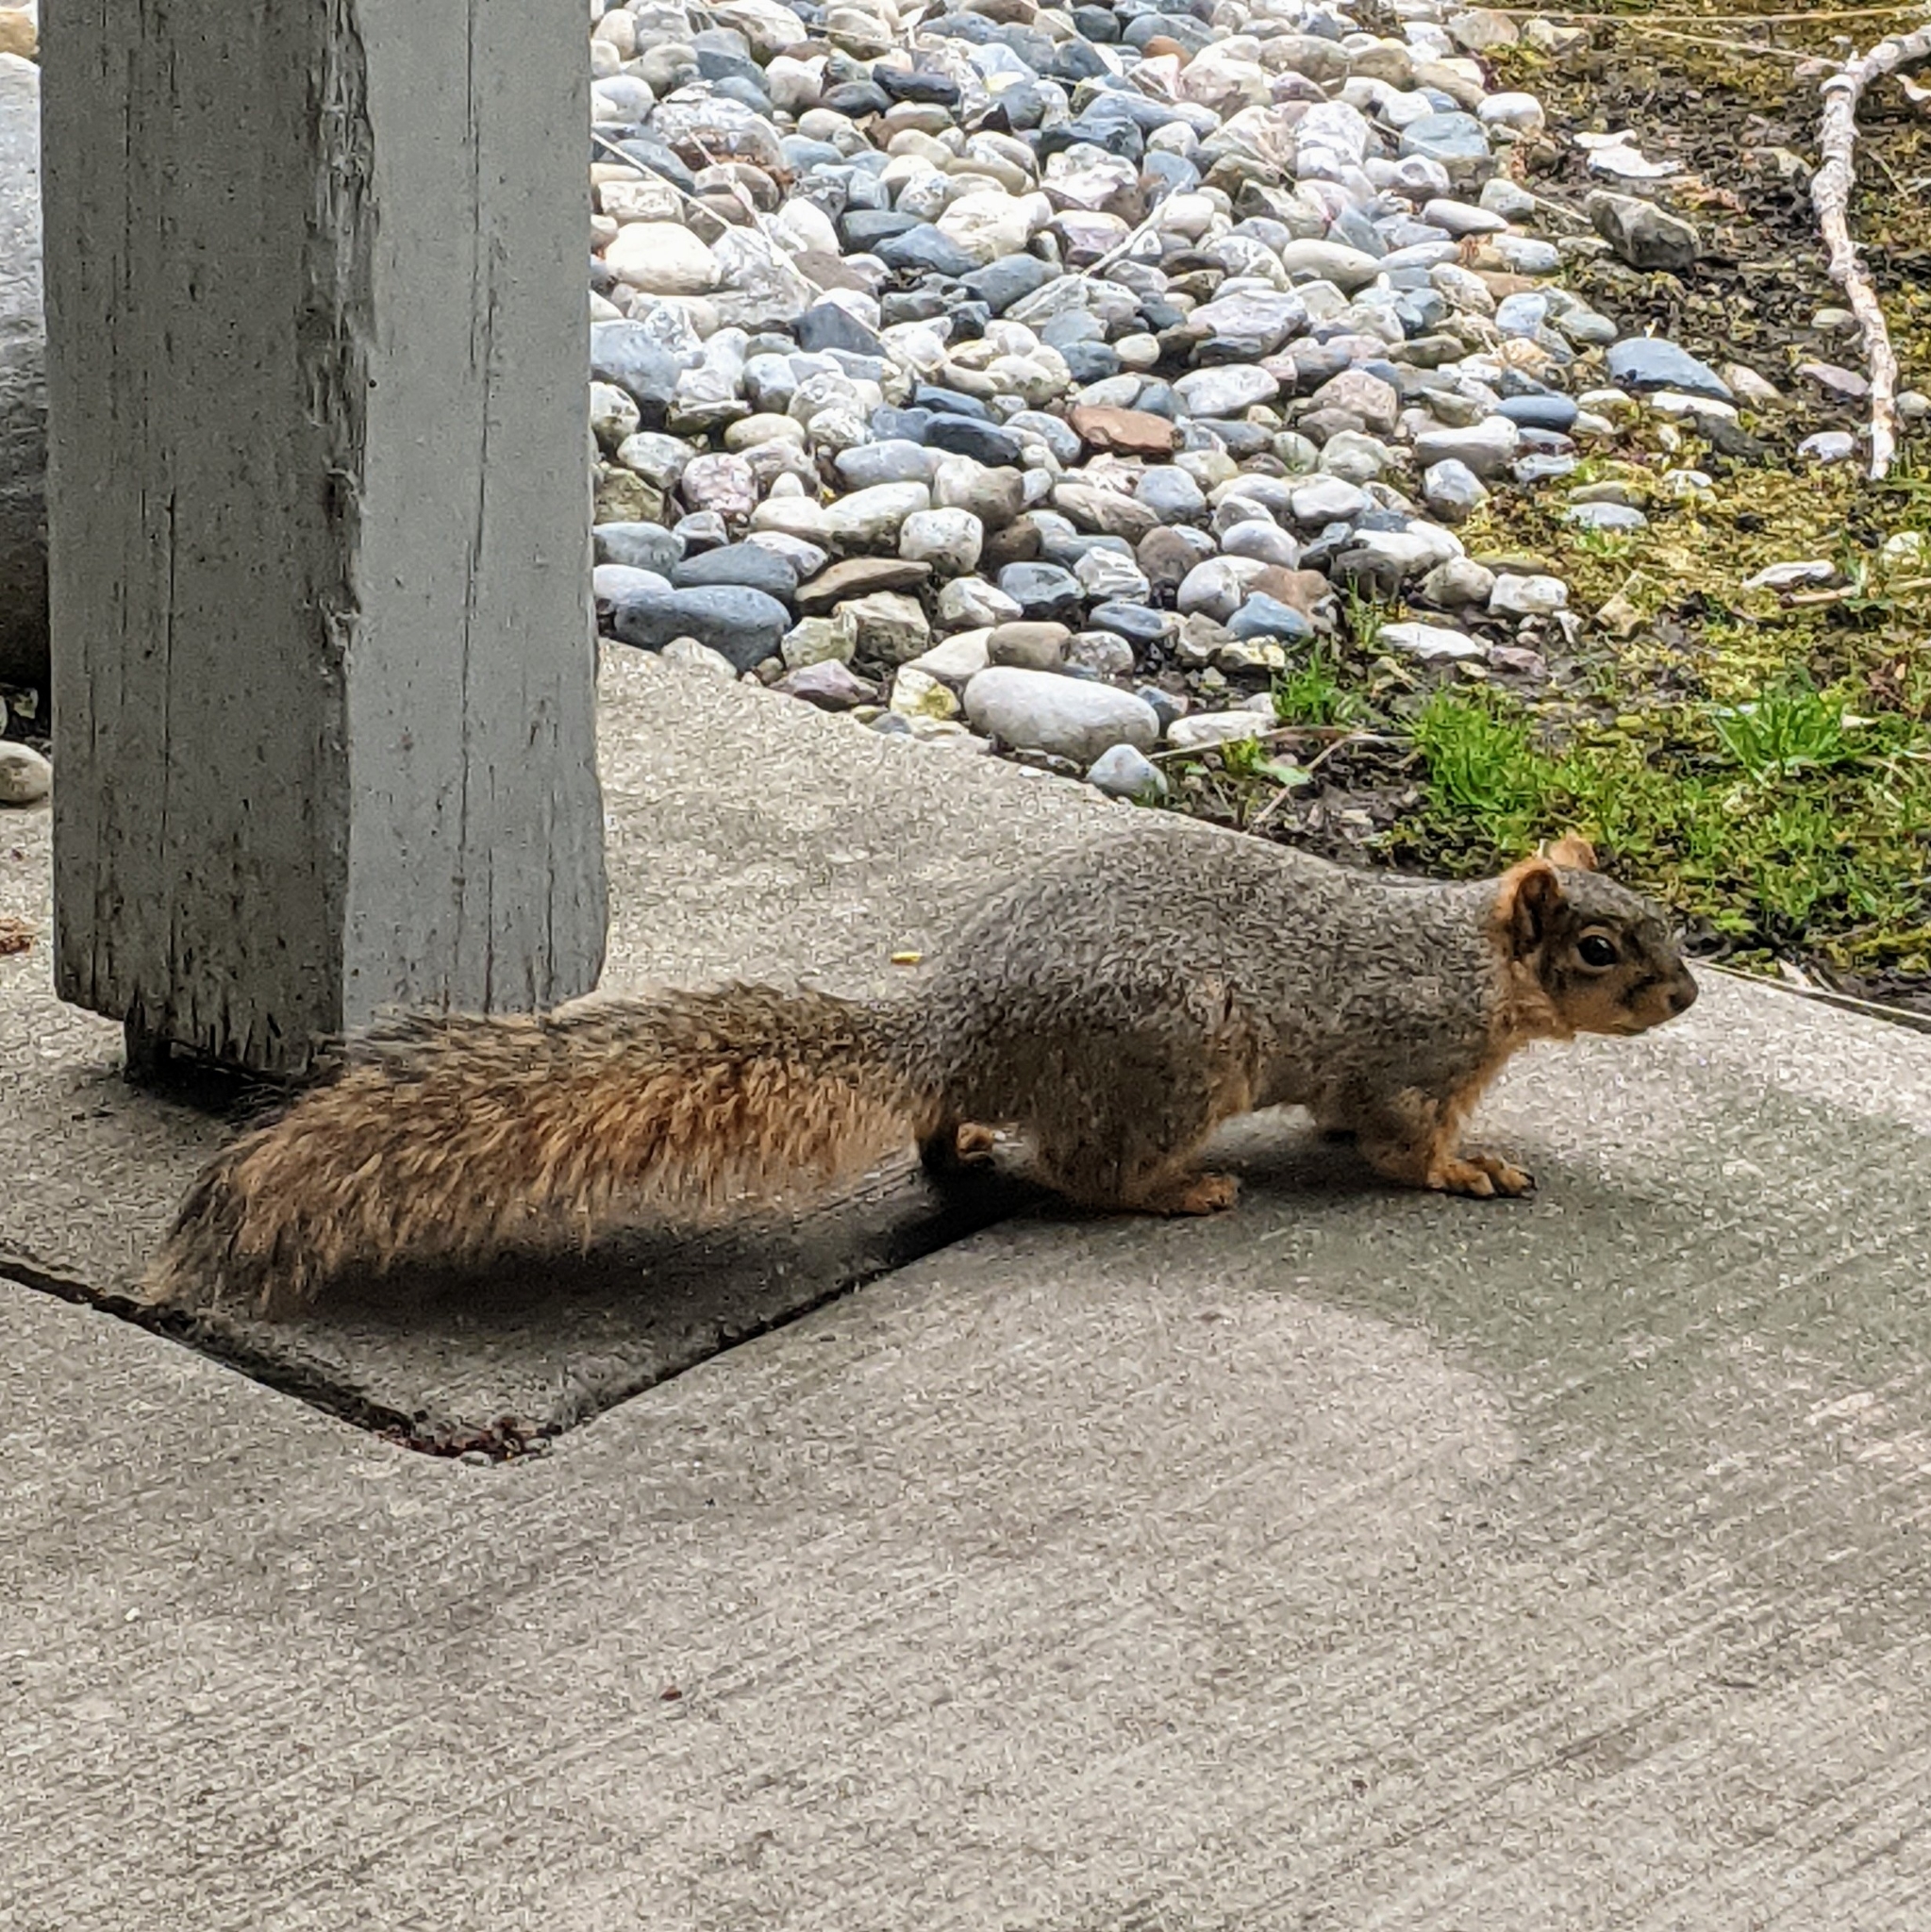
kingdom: Animalia
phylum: Chordata
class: Mammalia
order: Rodentia
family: Sciuridae
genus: Sciurus
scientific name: Sciurus niger
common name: Fox squirrel
